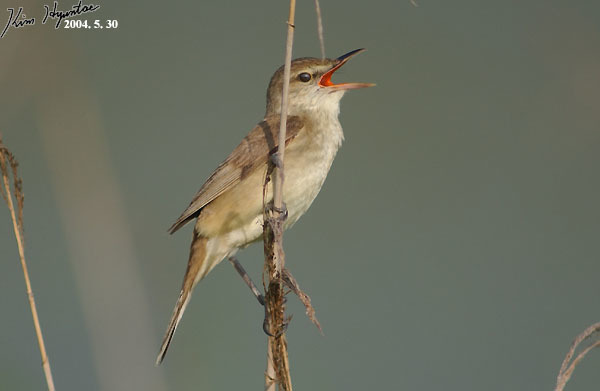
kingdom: Animalia
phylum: Chordata
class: Aves
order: Passeriformes
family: Acrocephalidae
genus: Acrocephalus
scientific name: Acrocephalus orientalis
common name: Oriental reed warbler
